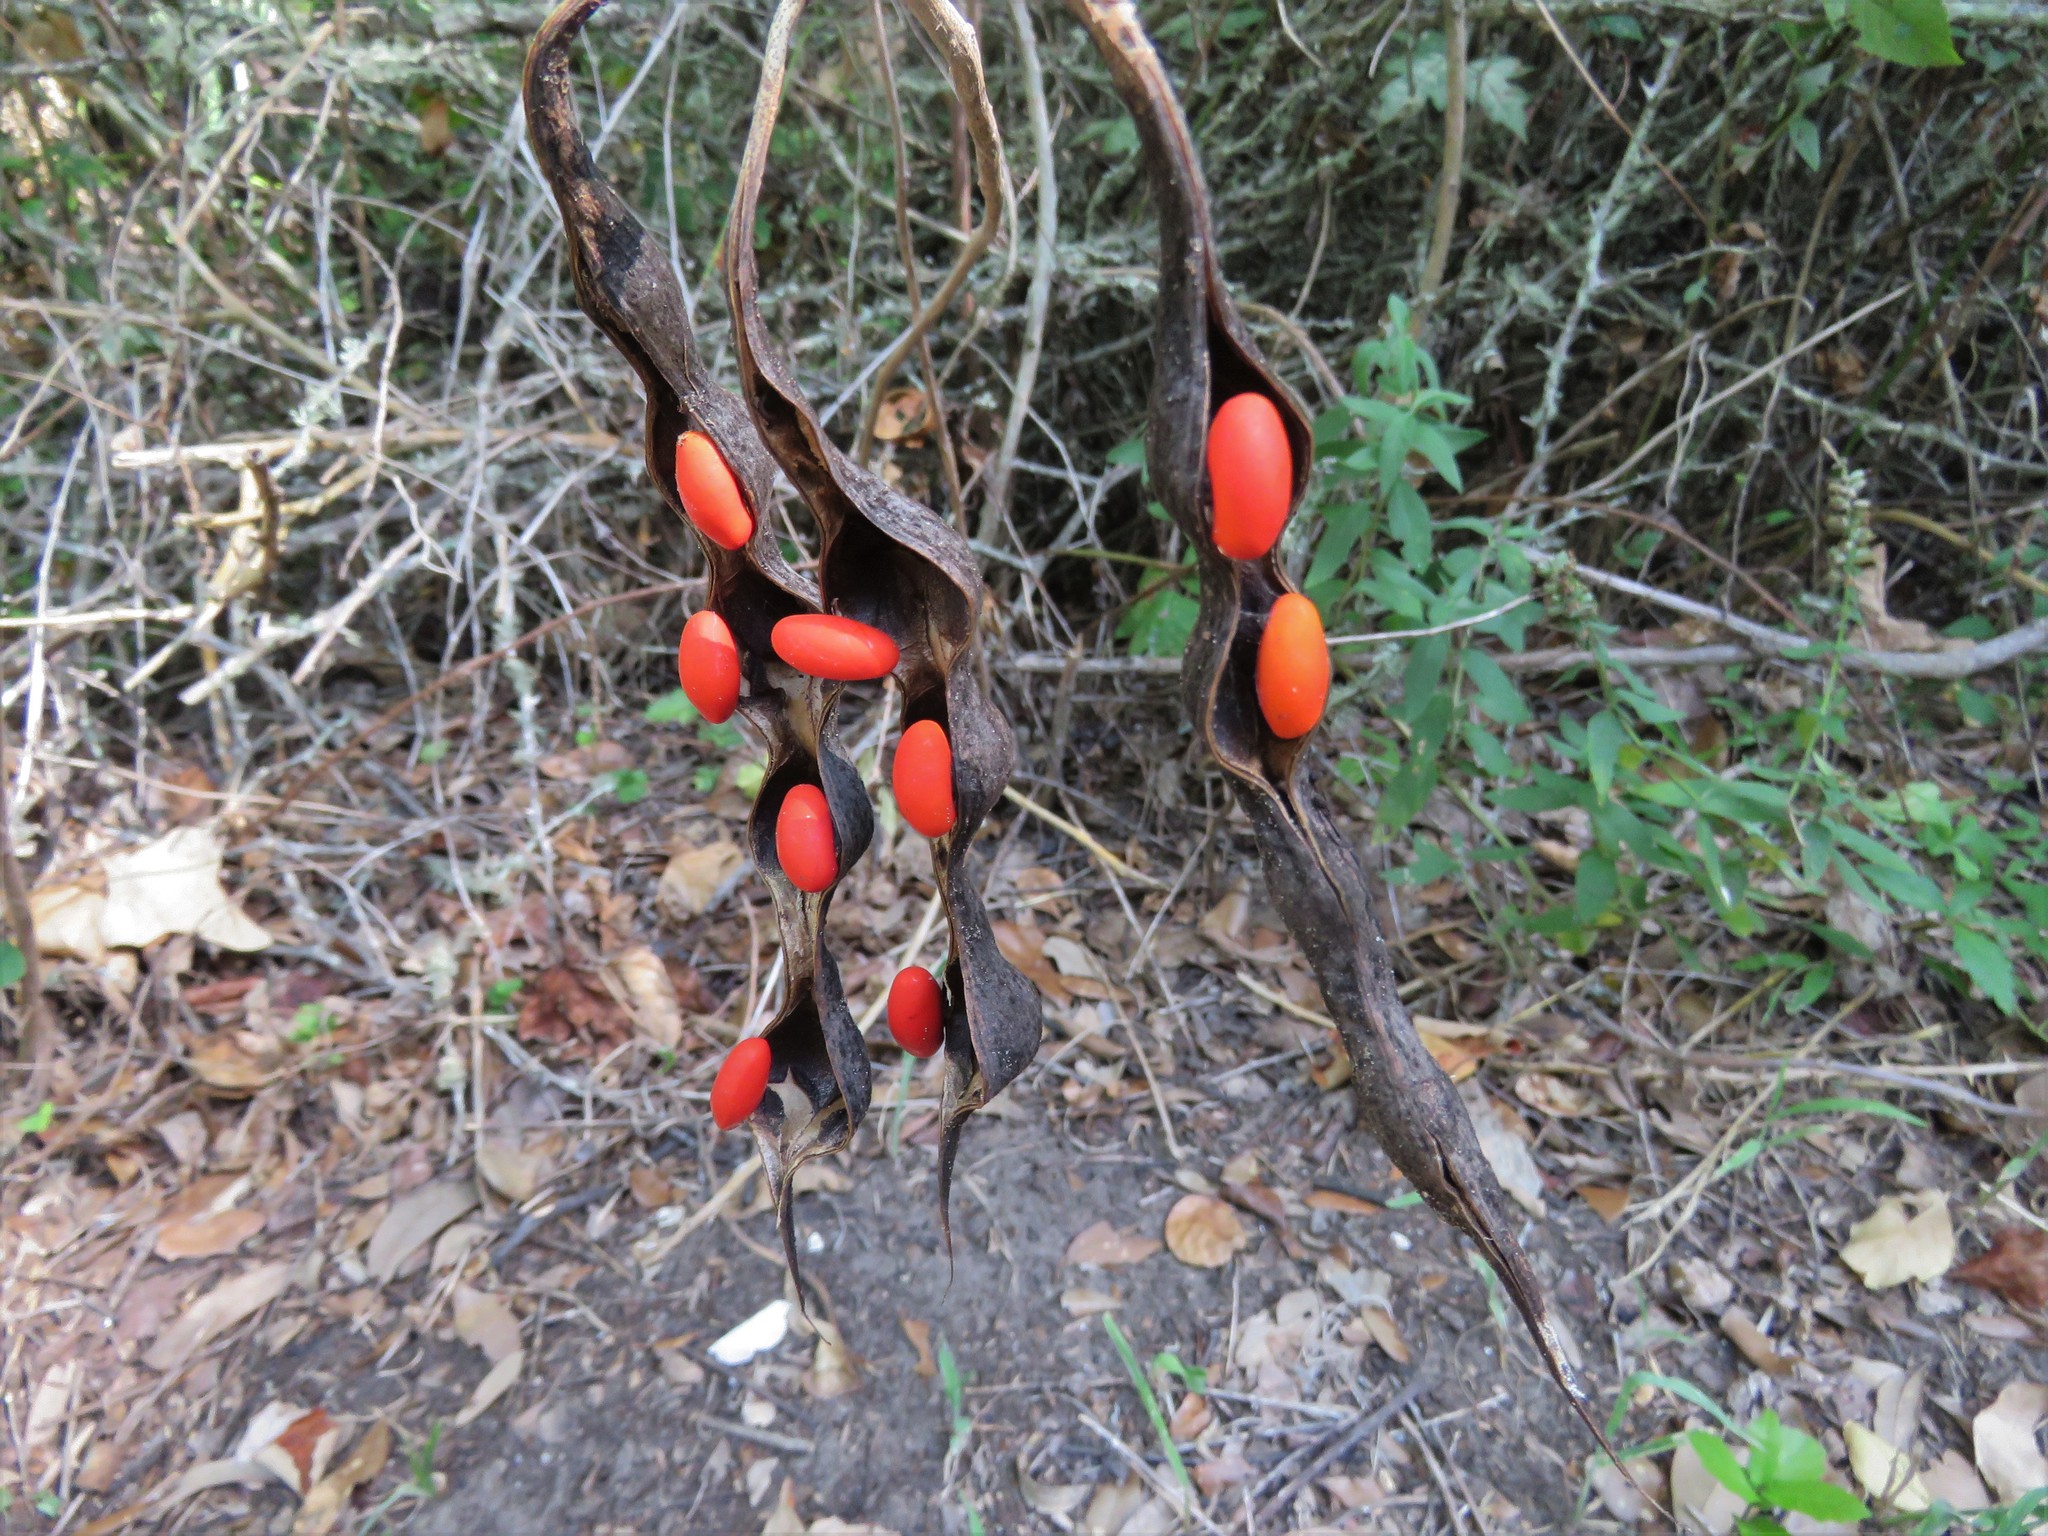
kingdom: Plantae
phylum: Tracheophyta
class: Magnoliopsida
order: Fabales
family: Fabaceae
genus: Erythrina
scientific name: Erythrina herbacea
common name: Coral-bean
